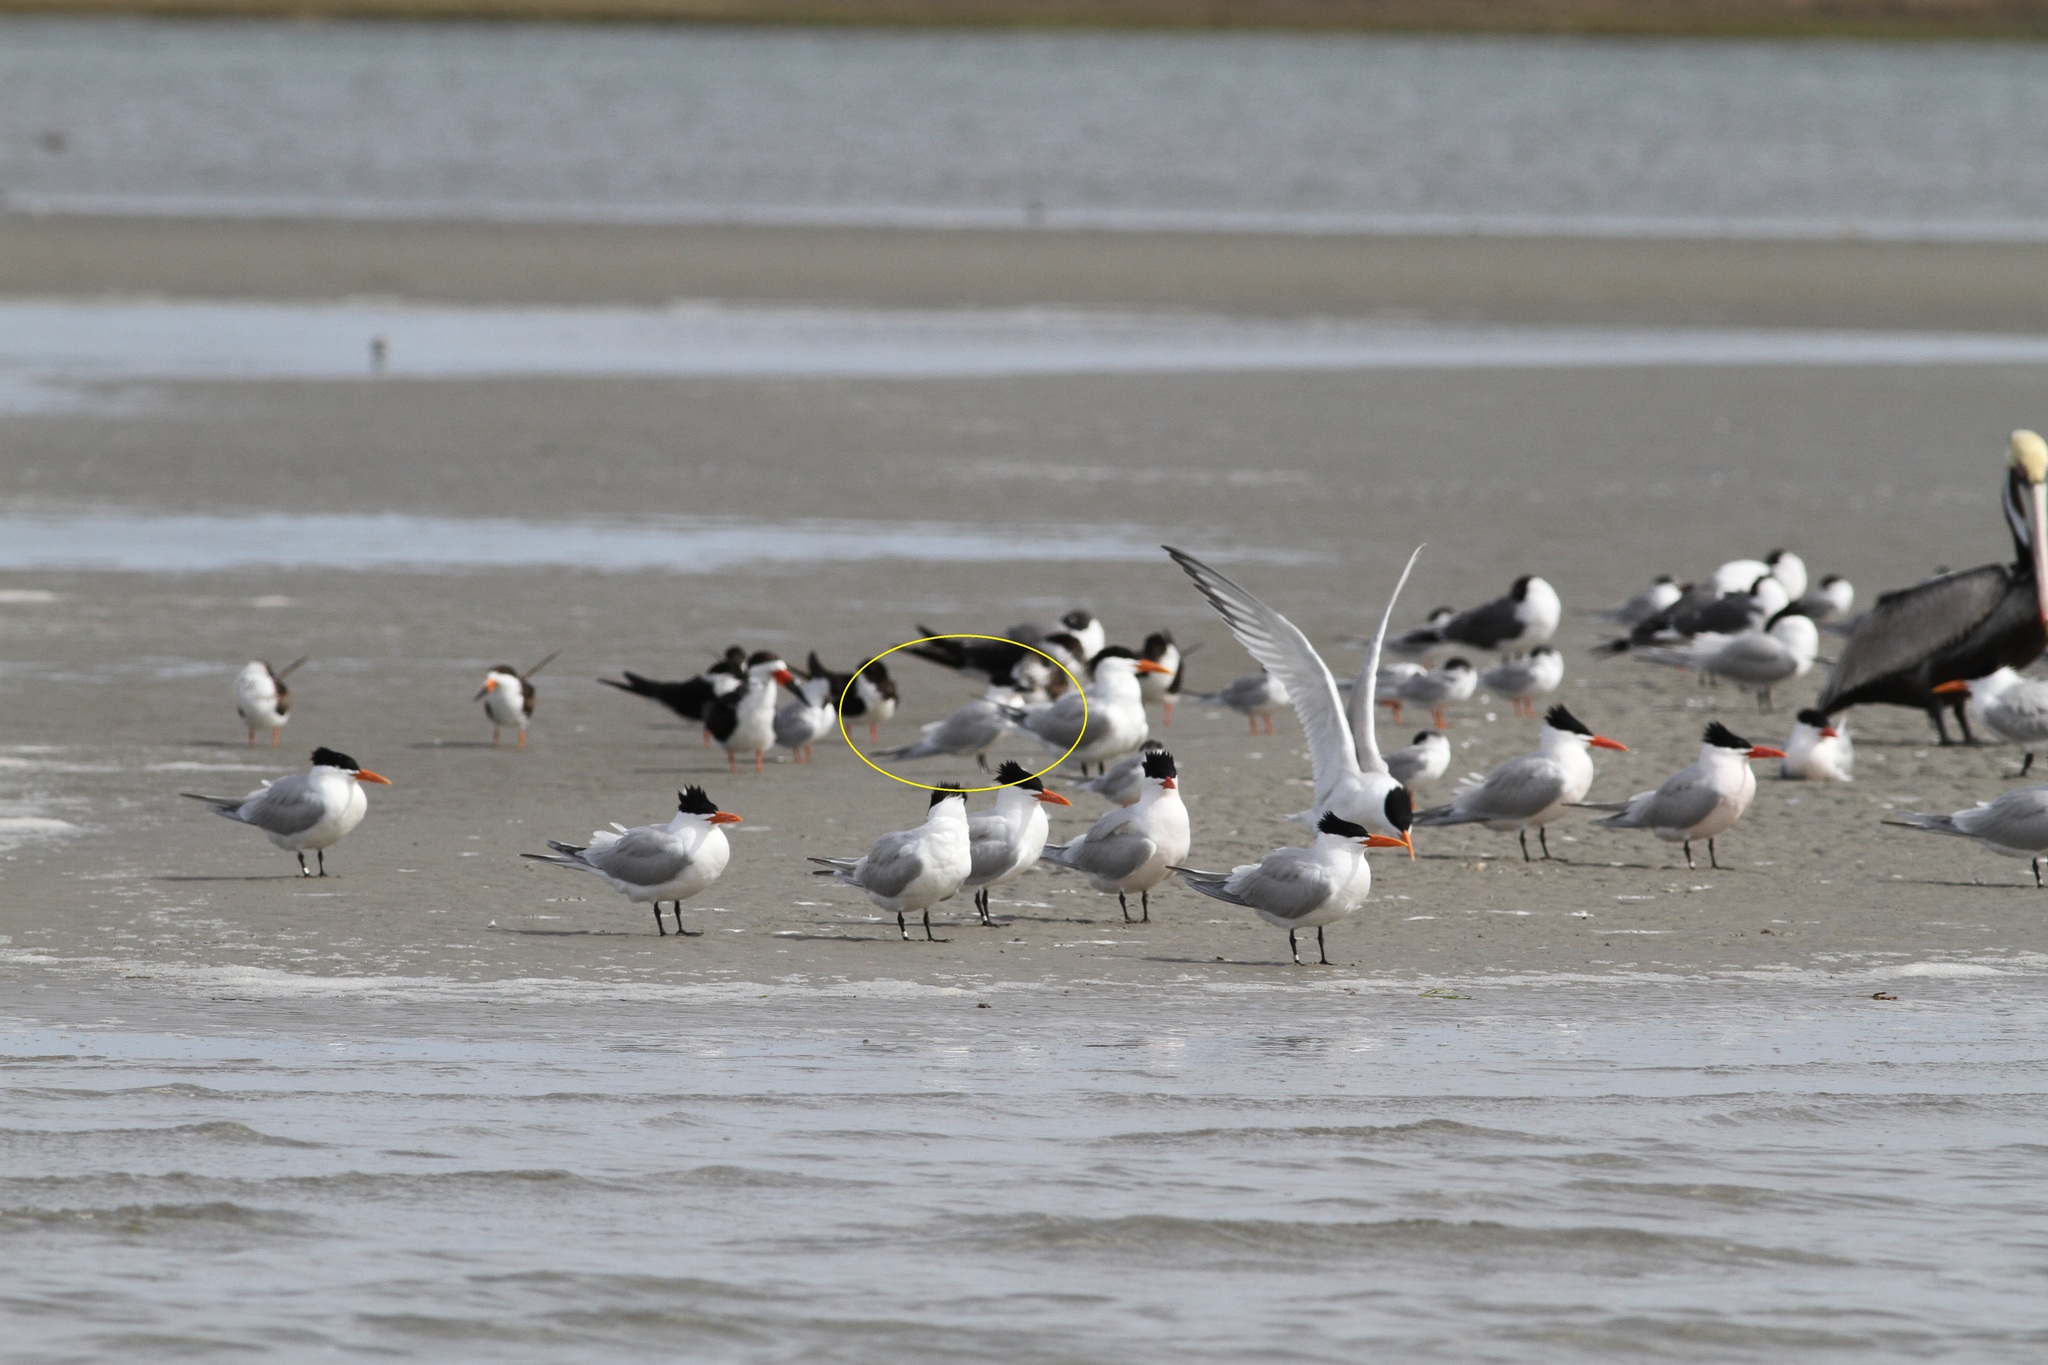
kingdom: Animalia
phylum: Chordata
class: Aves
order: Charadriiformes
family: Laridae
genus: Thalasseus
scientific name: Thalasseus sandvicensis
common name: Sandwich tern
